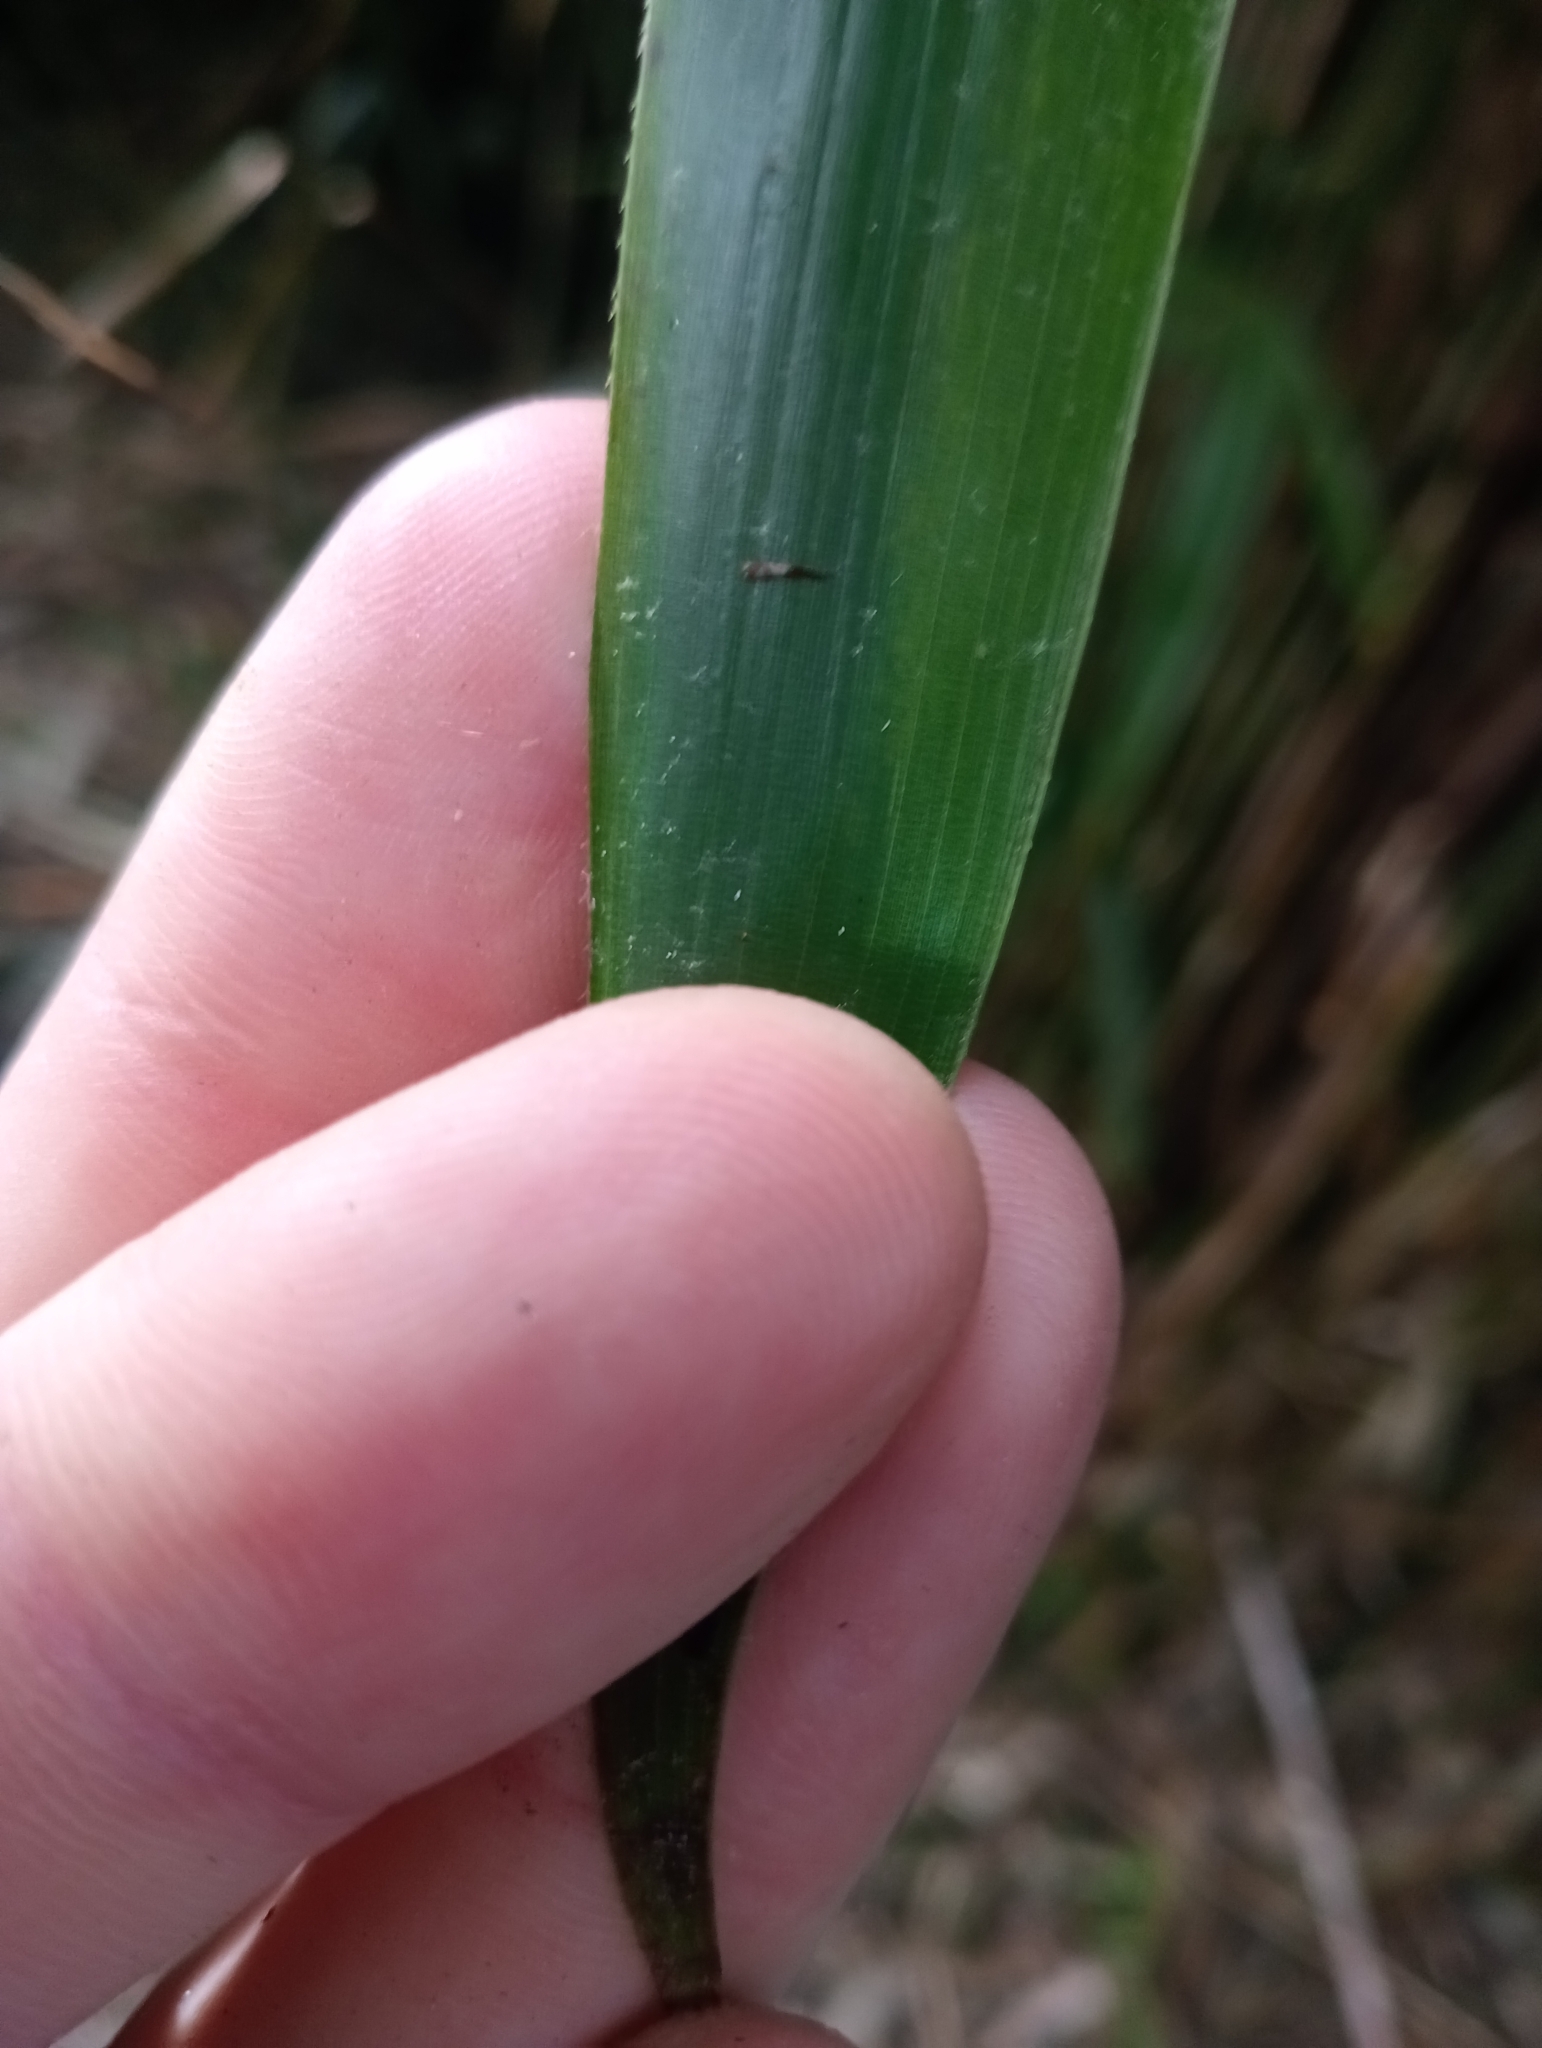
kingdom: Plantae
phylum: Tracheophyta
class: Liliopsida
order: Poales
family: Poaceae
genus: Pseudosasa
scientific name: Pseudosasa japonica
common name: Arrow bamboo
